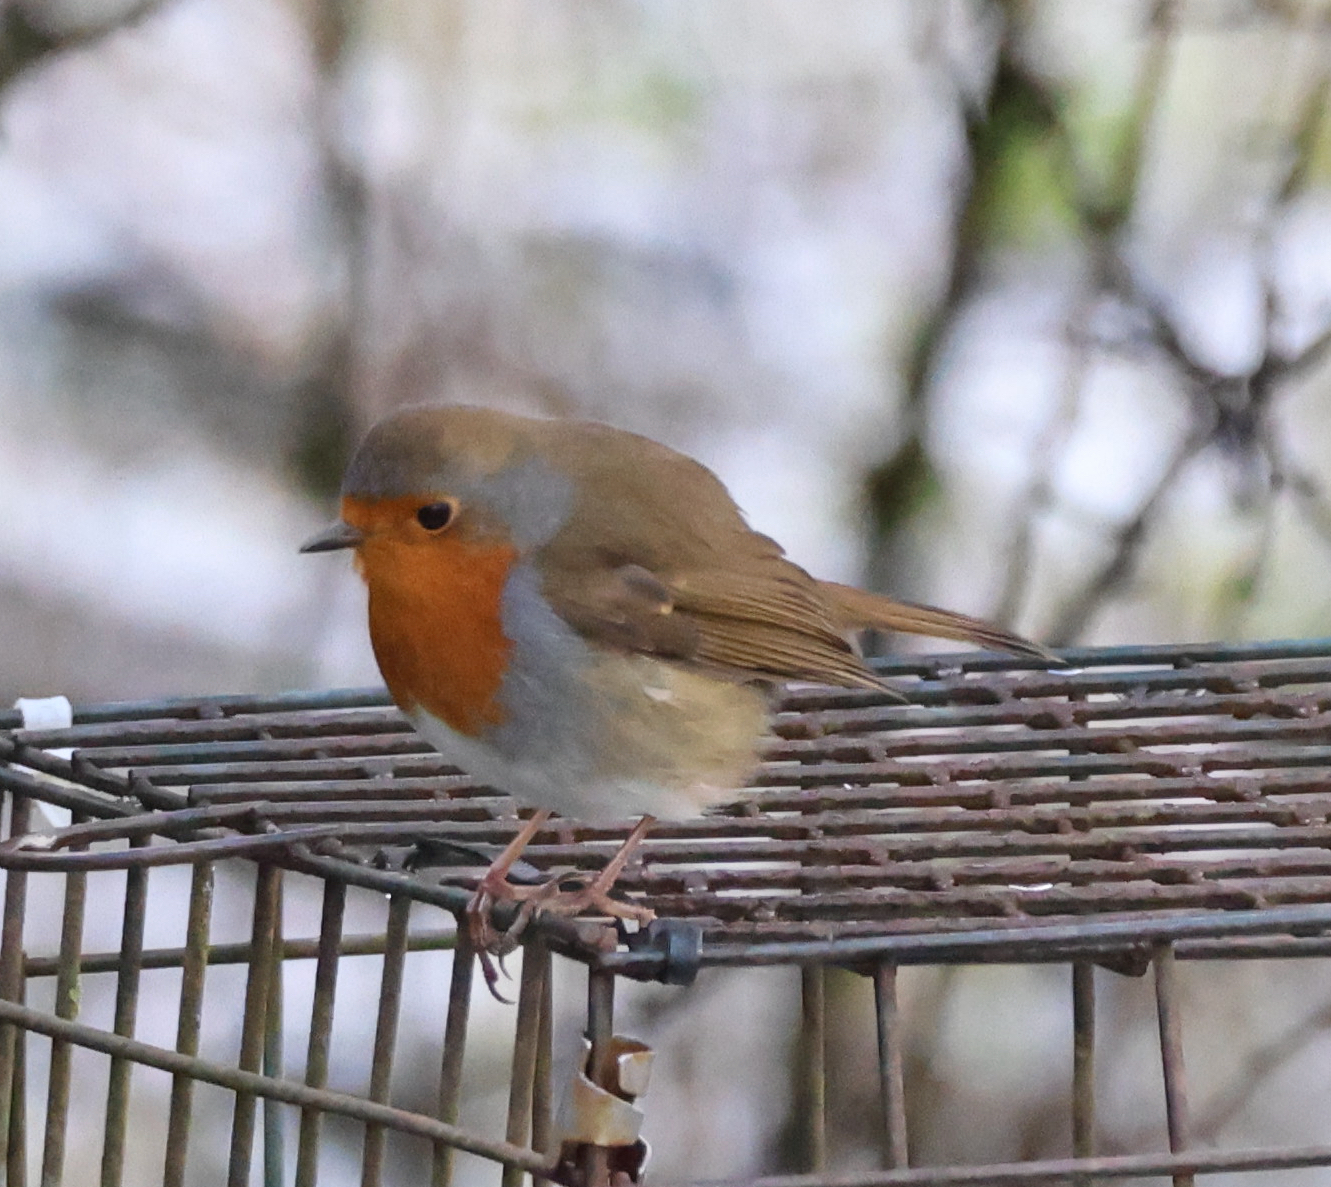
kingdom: Animalia
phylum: Chordata
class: Aves
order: Passeriformes
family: Muscicapidae
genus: Erithacus
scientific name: Erithacus rubecula
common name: European robin
